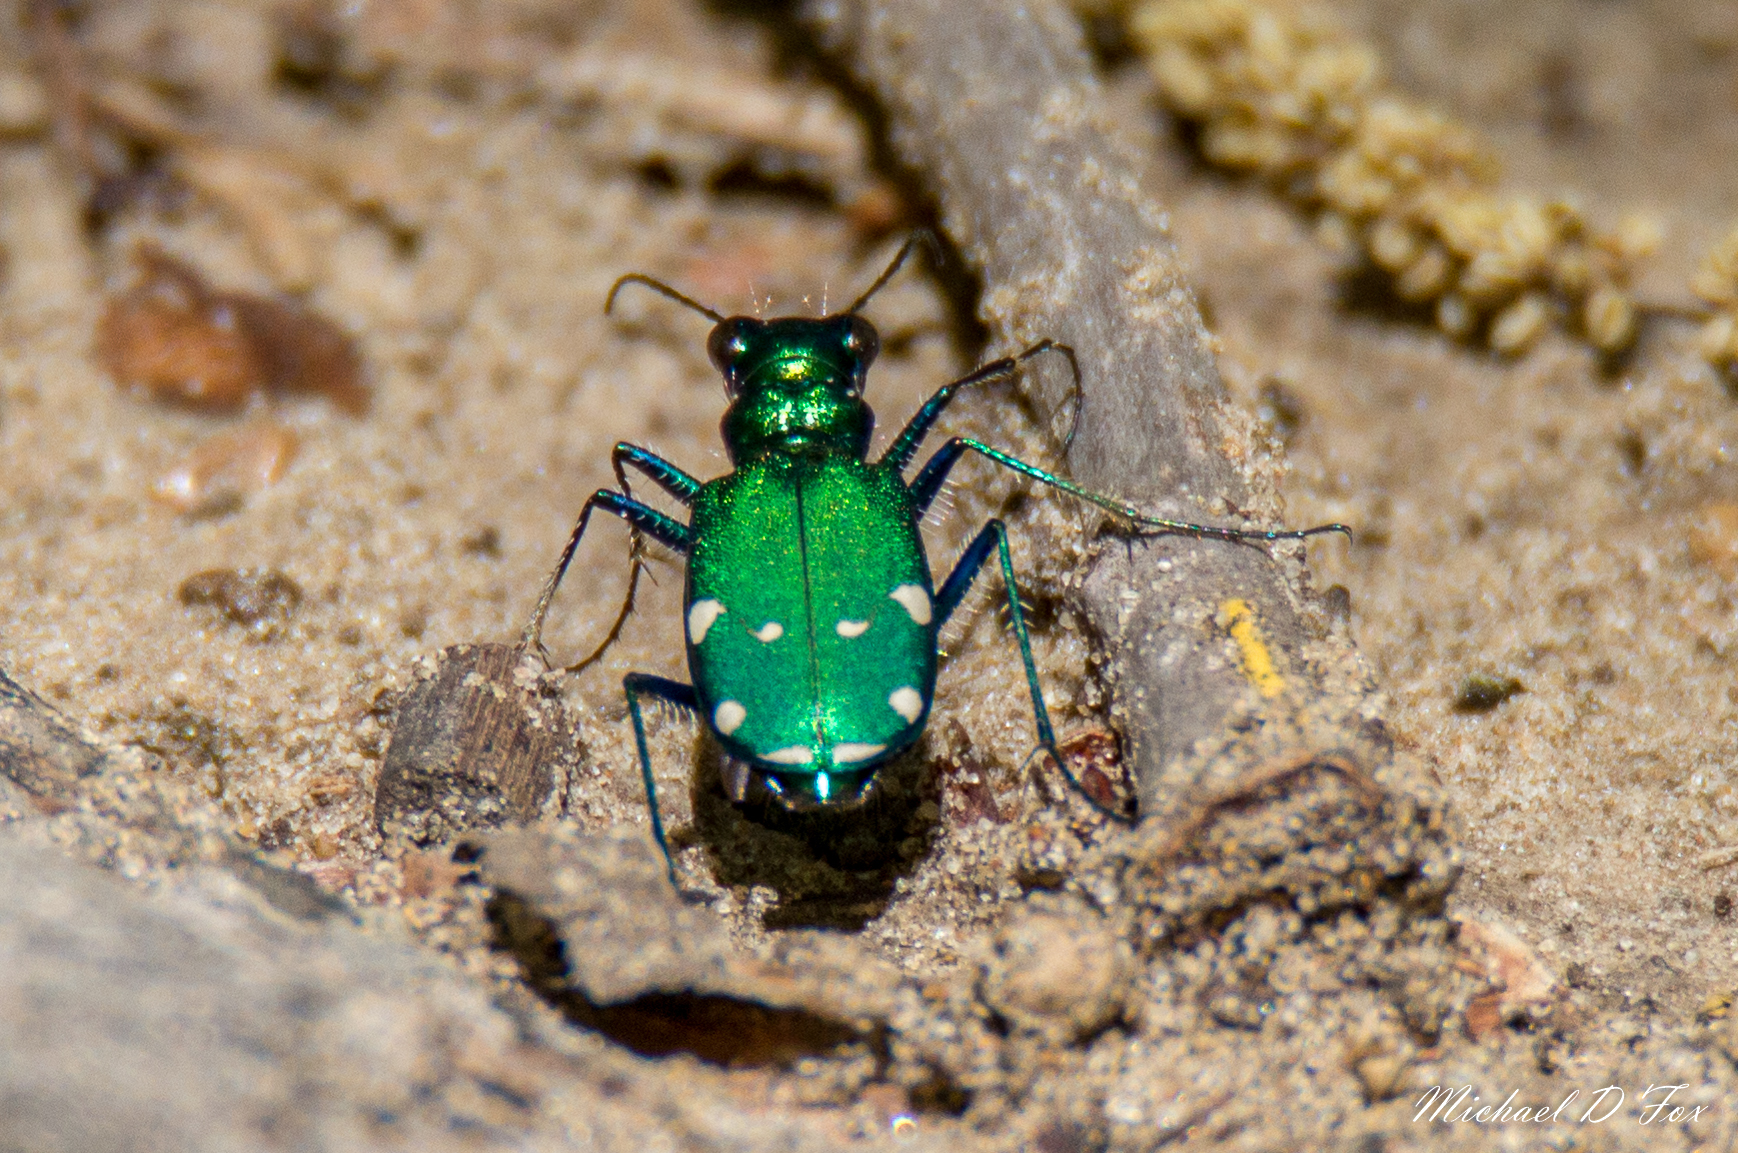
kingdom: Animalia
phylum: Arthropoda
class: Insecta
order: Coleoptera
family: Carabidae
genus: Cicindela
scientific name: Cicindela sexguttata
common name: Six-spotted tiger beetle
